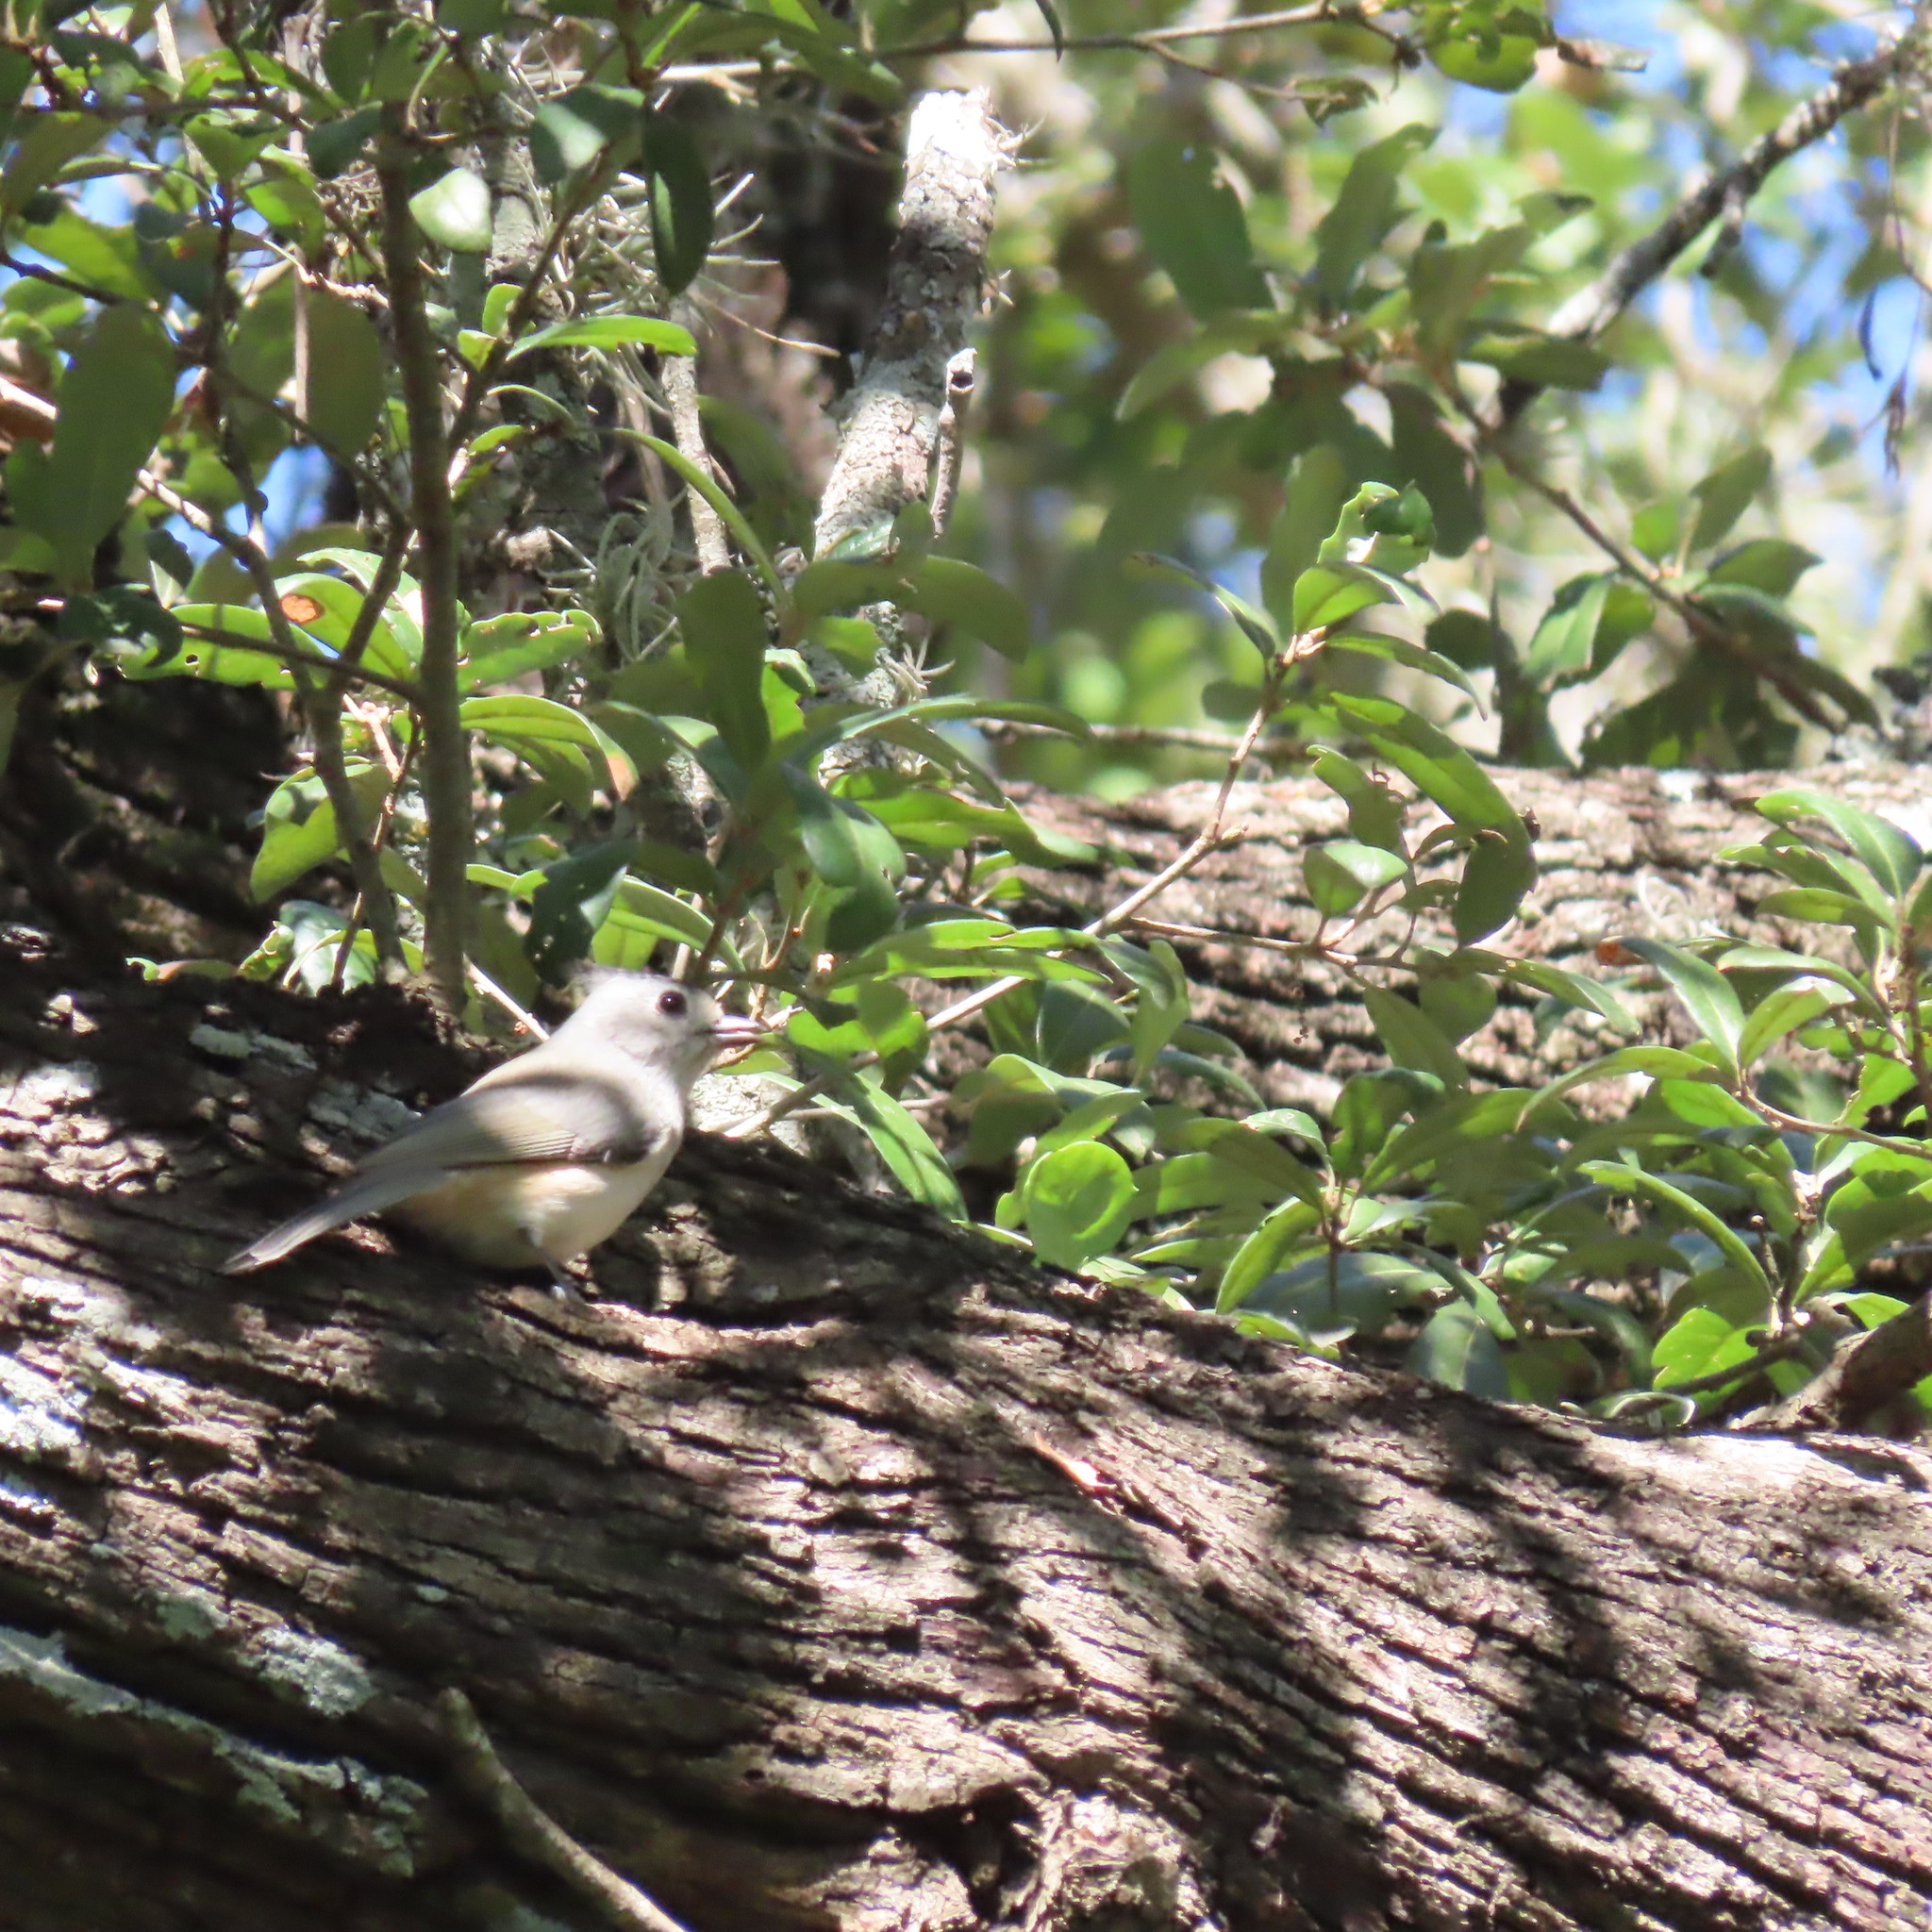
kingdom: Animalia
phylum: Chordata
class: Aves
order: Passeriformes
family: Paridae
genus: Baeolophus
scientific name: Baeolophus atricristatus
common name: Black-crested titmouse
